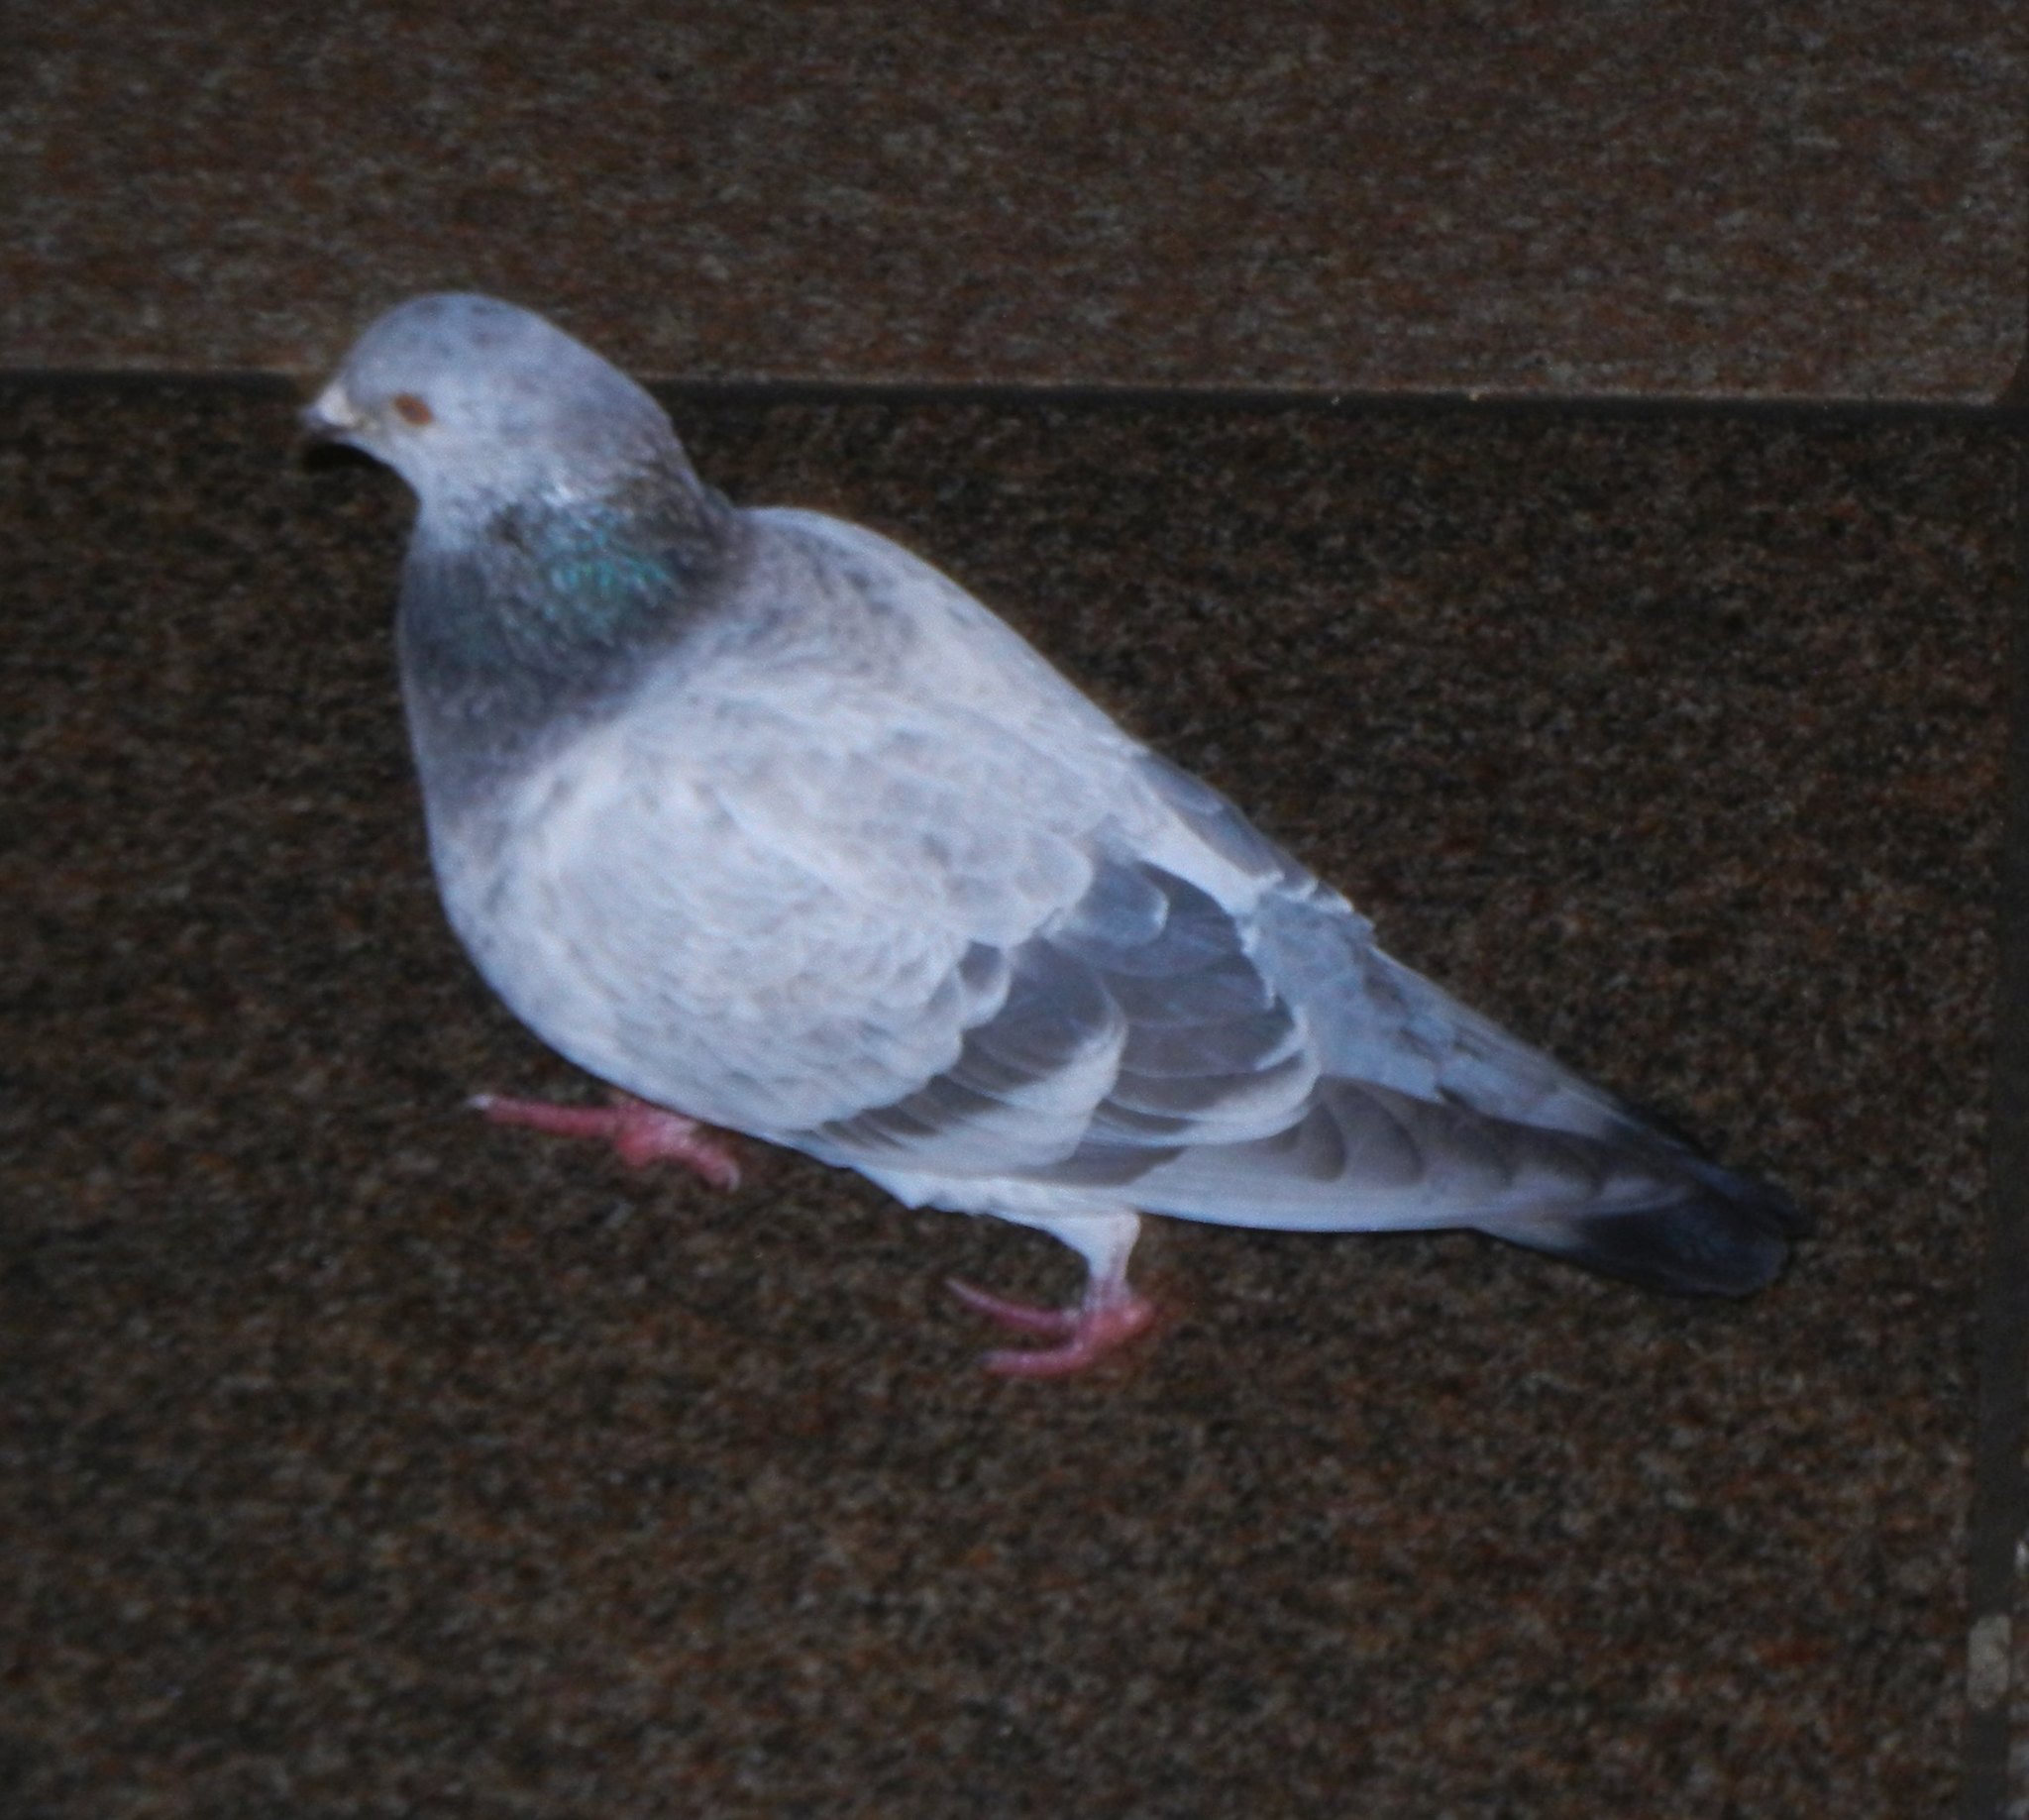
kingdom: Animalia
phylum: Chordata
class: Aves
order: Columbiformes
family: Columbidae
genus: Columba
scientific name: Columba livia
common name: Rock pigeon
